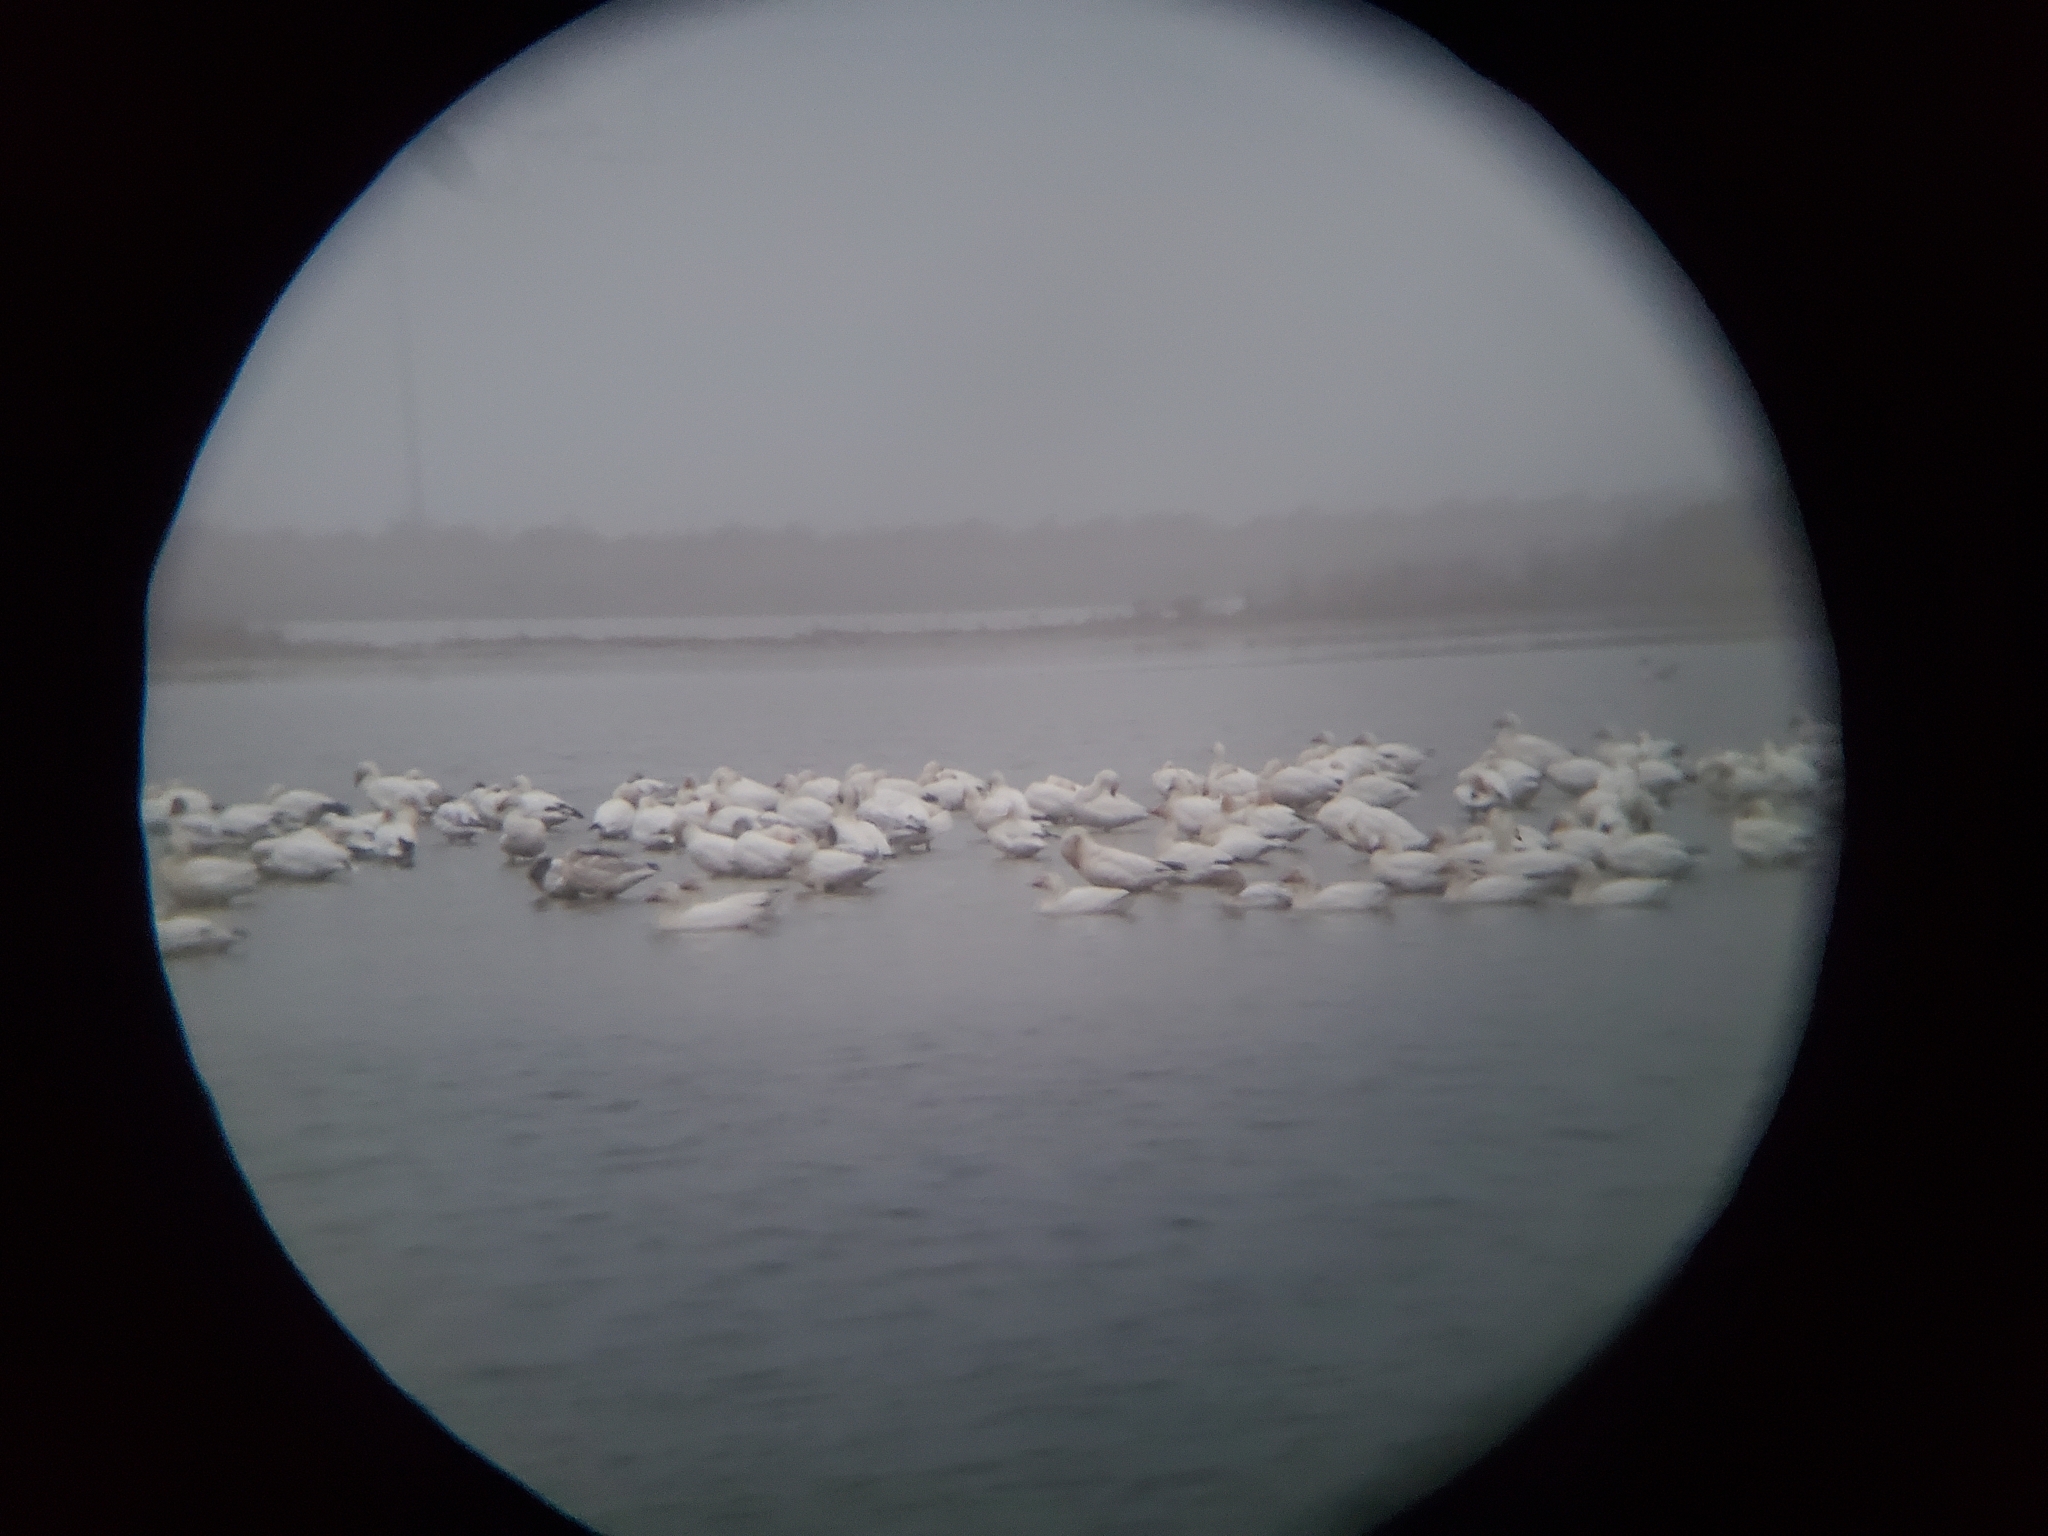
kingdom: Animalia
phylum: Chordata
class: Aves
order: Anseriformes
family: Anatidae
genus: Anser
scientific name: Anser caerulescens
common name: Snow goose
